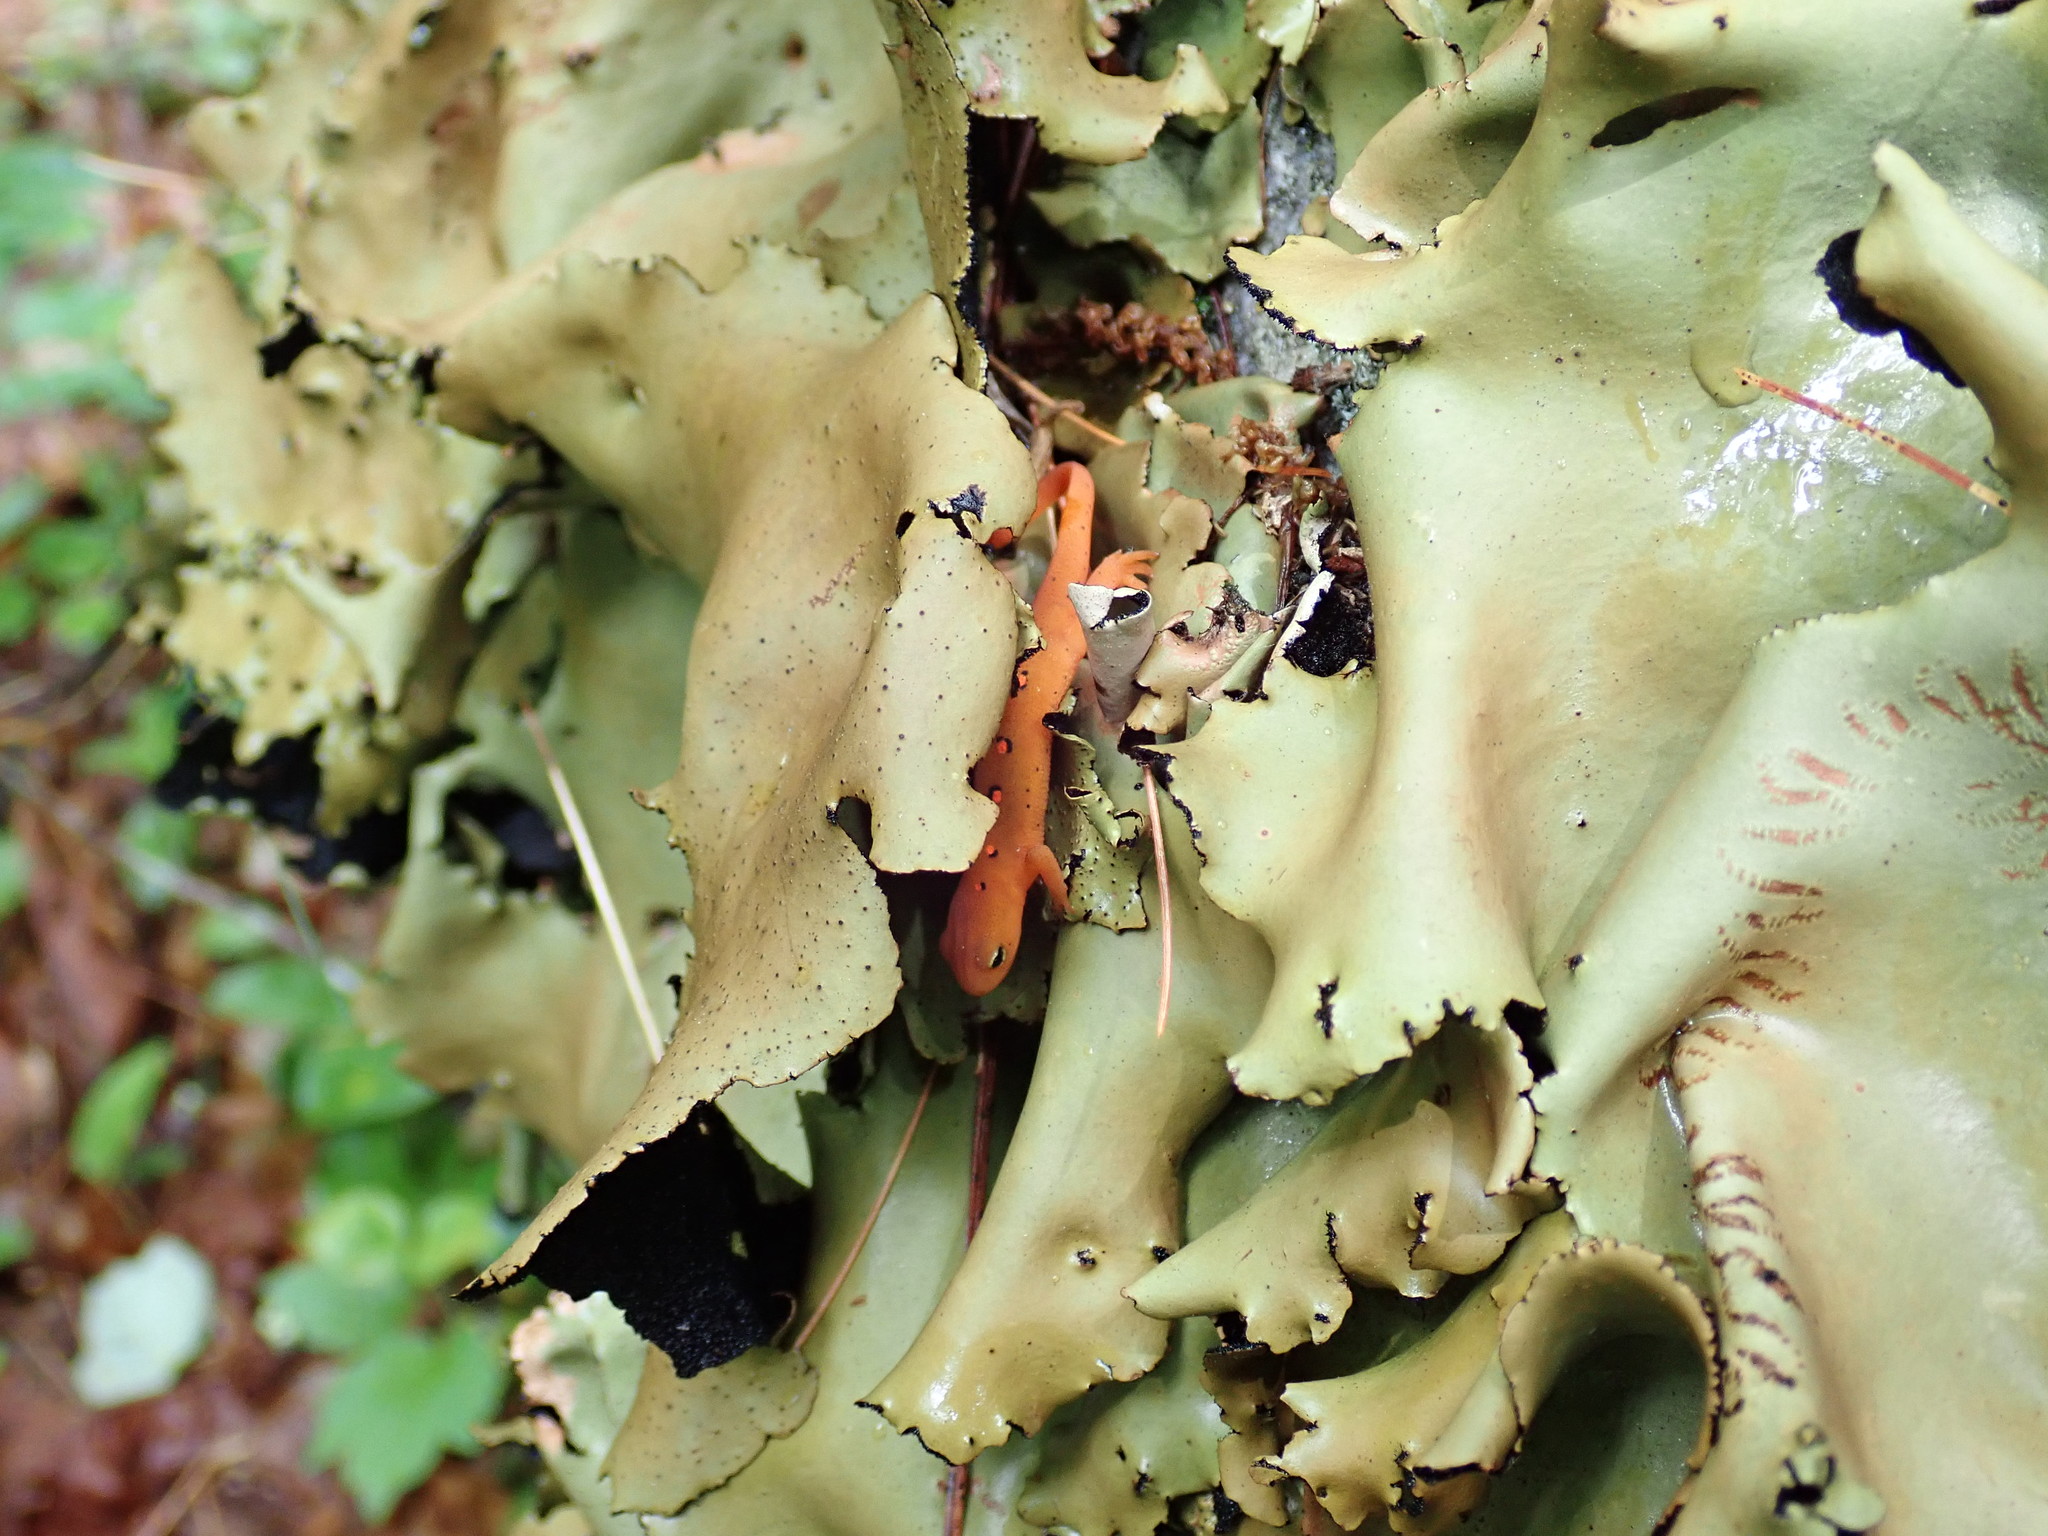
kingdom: Animalia
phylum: Chordata
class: Amphibia
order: Caudata
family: Salamandridae
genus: Notophthalmus
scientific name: Notophthalmus viridescens
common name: Eastern newt
